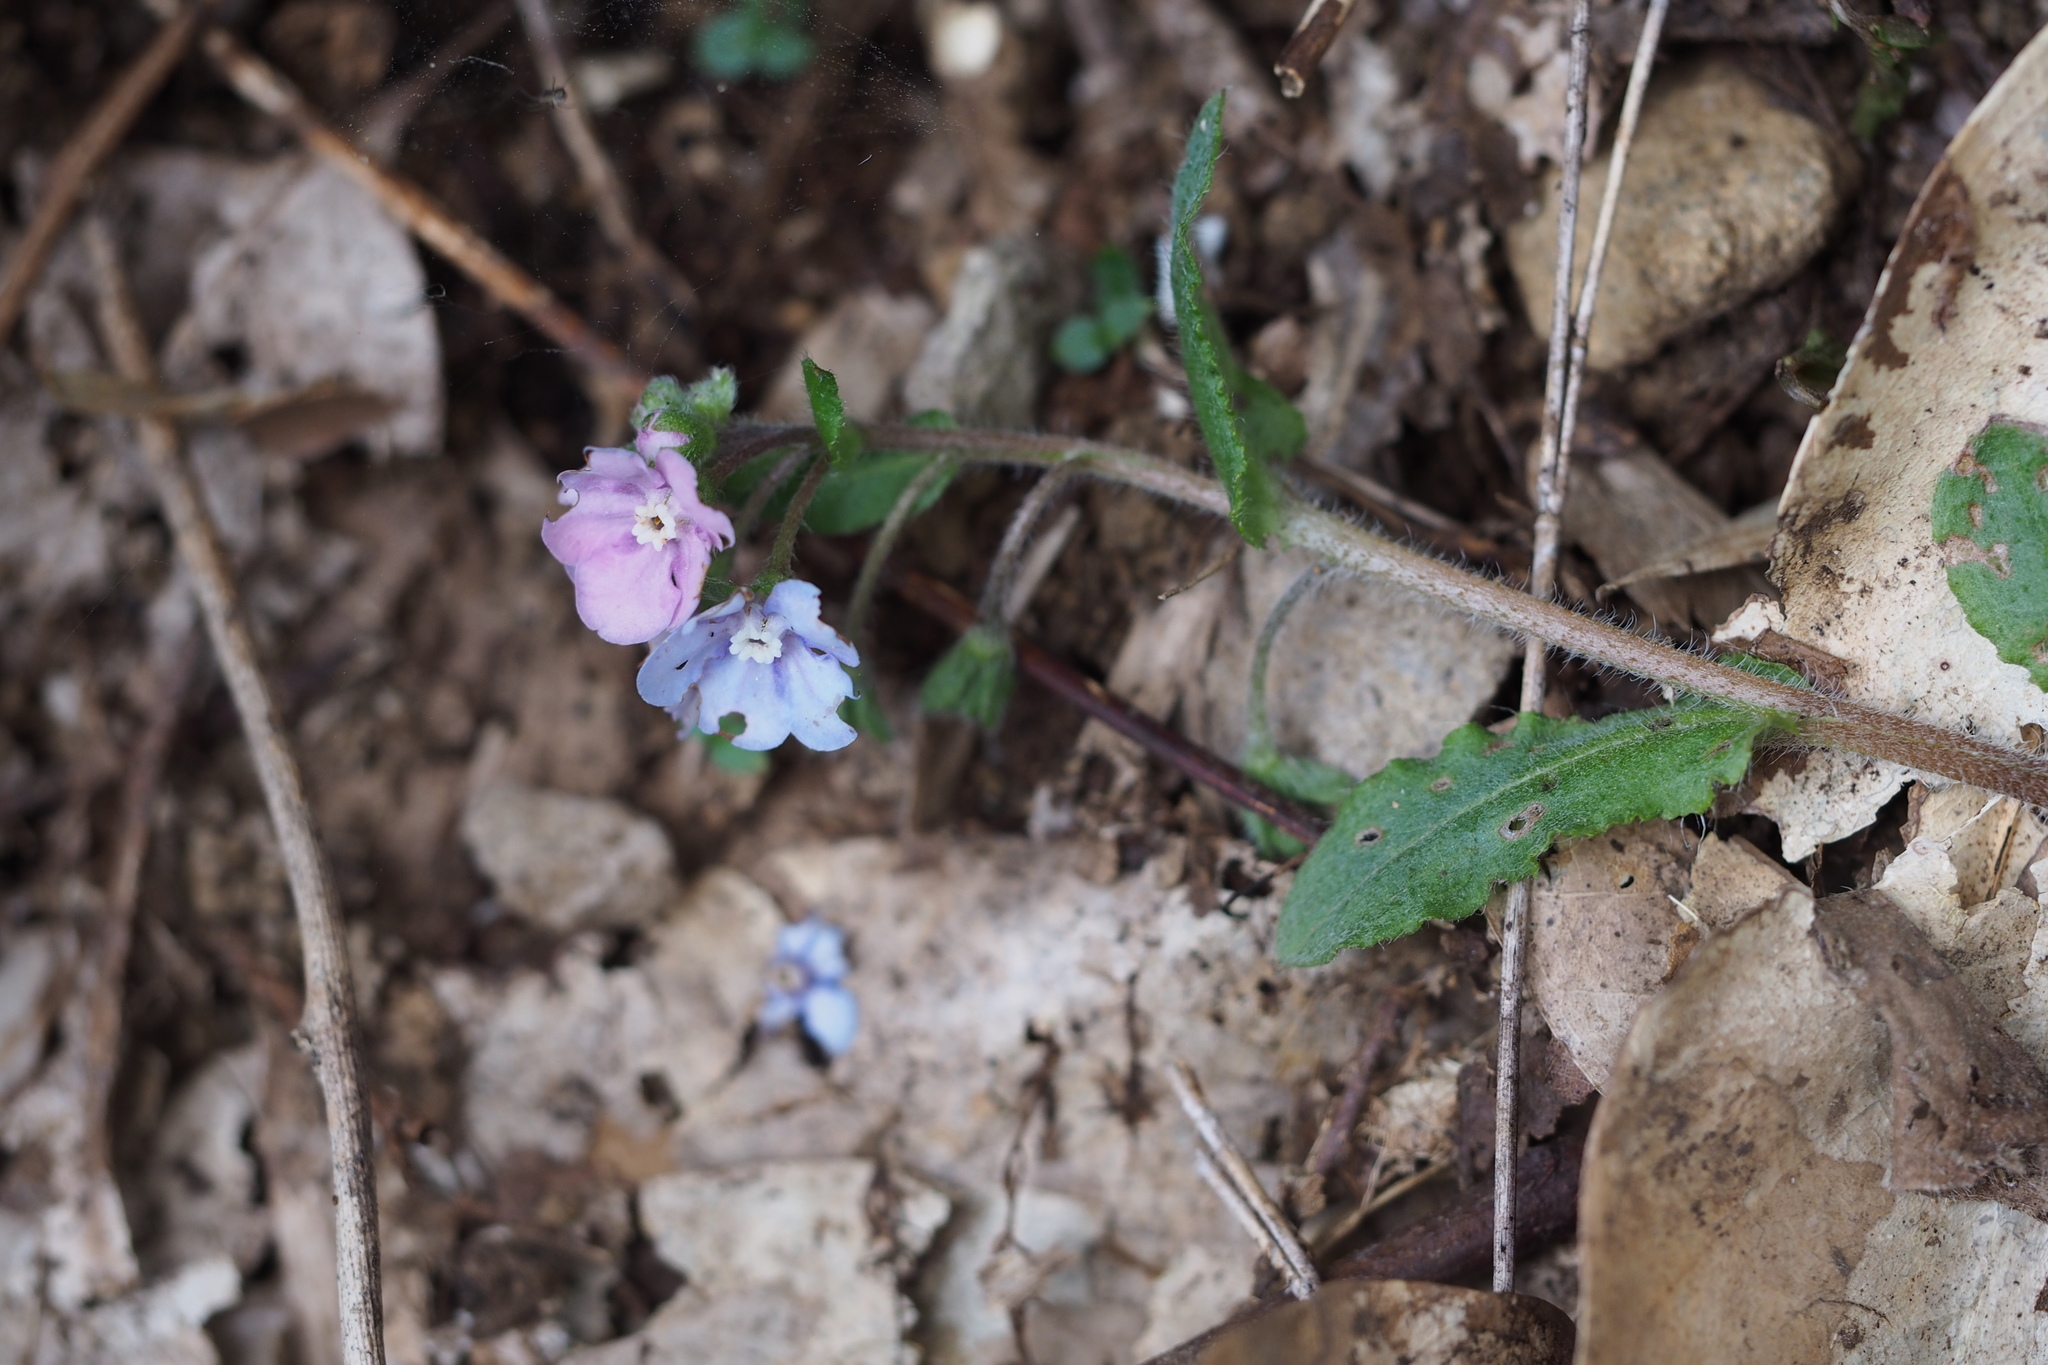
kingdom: Plantae
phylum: Tracheophyta
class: Magnoliopsida
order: Boraginales
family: Boraginaceae
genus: Nihon
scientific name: Nihon japonicum
